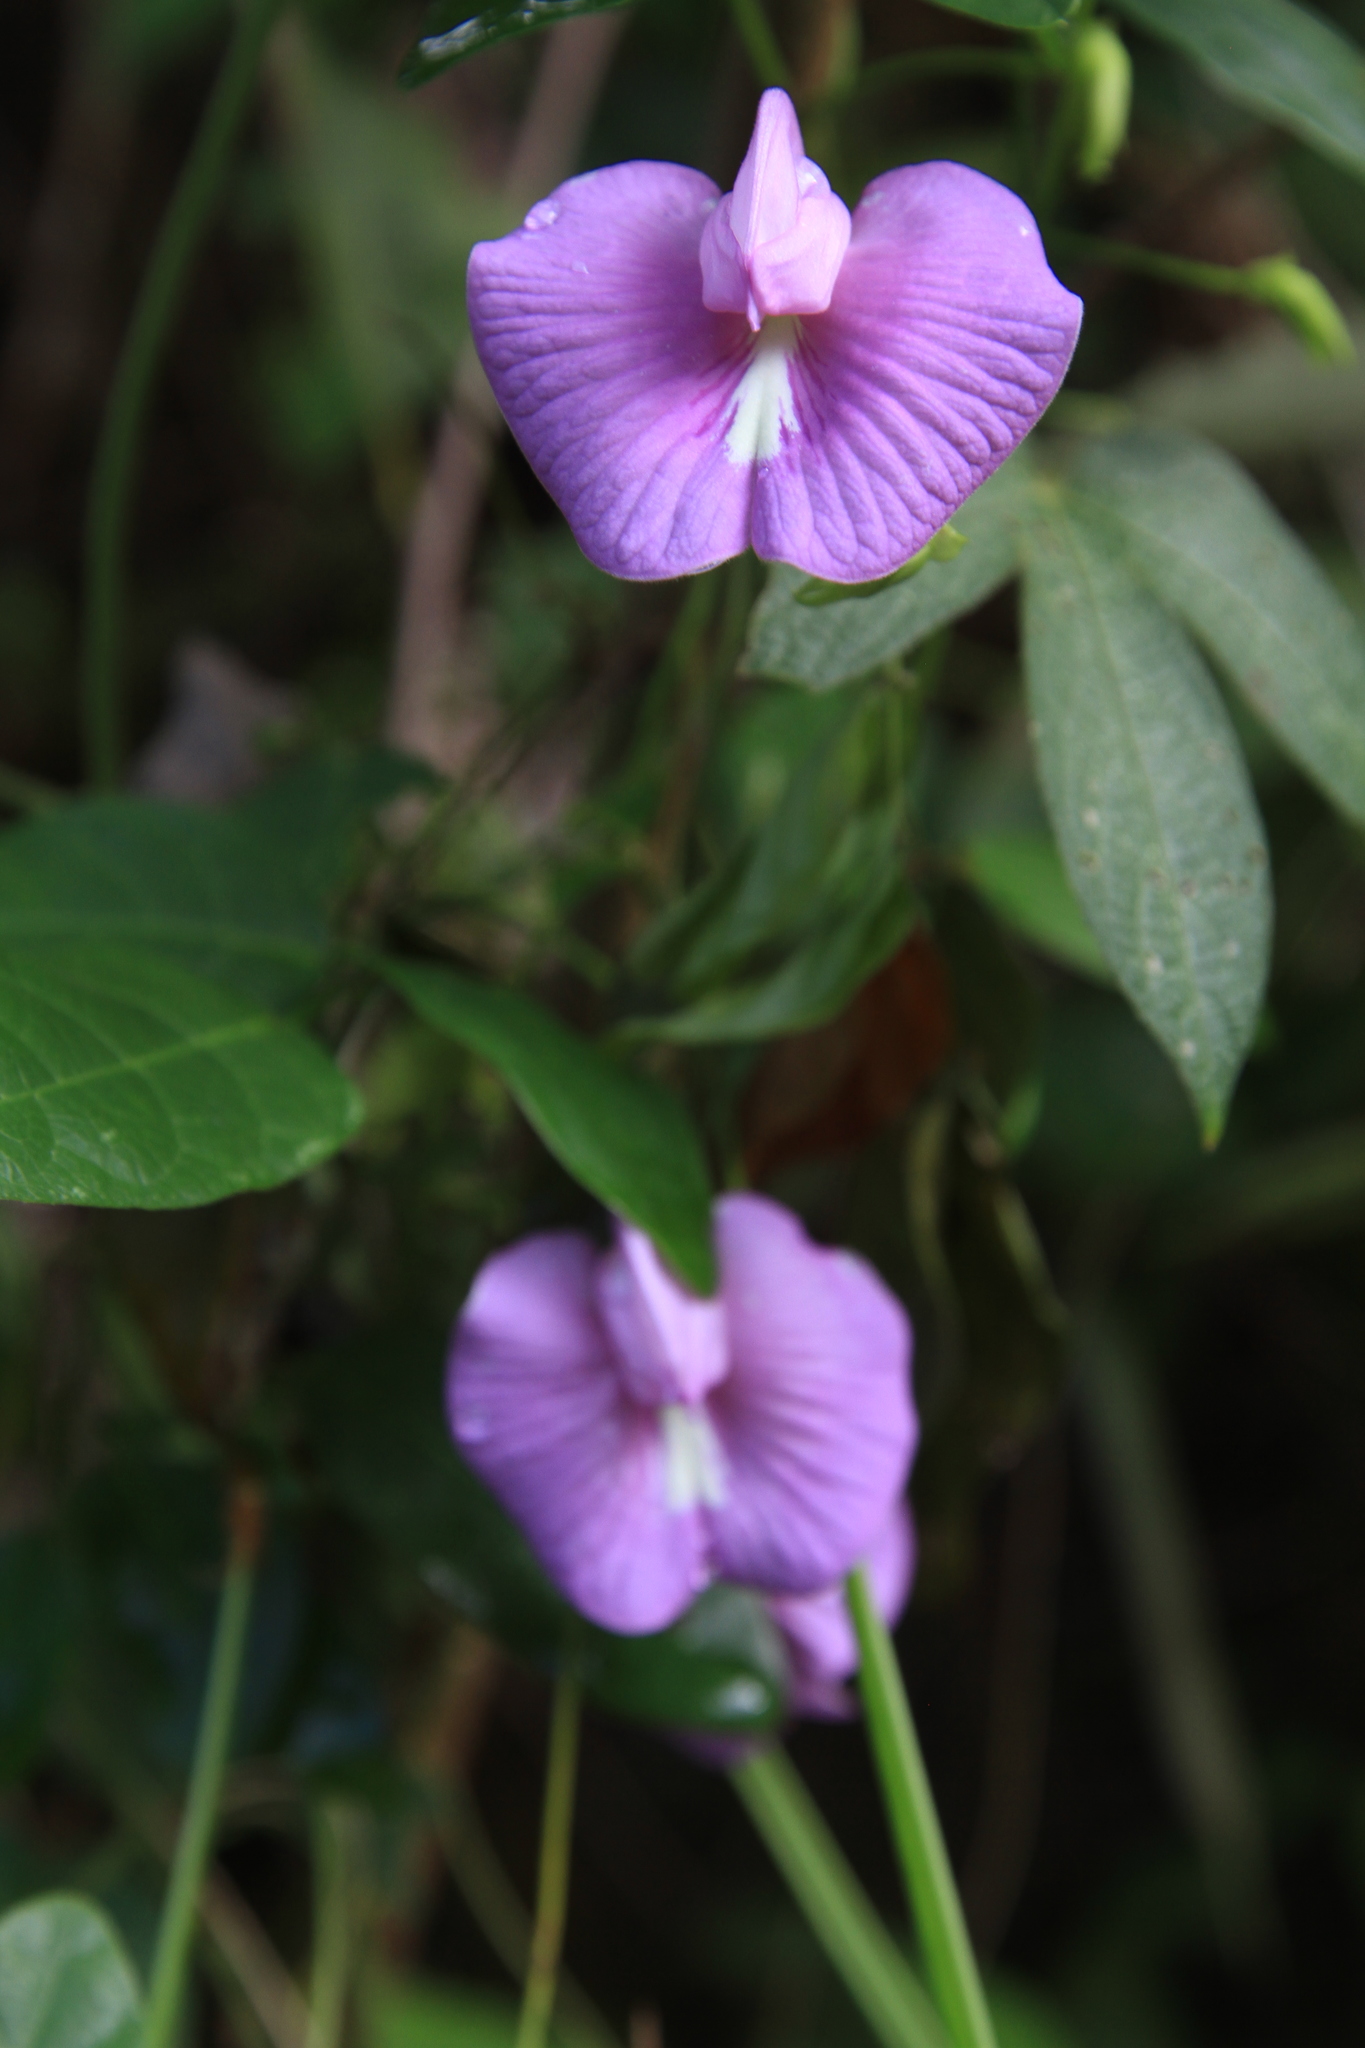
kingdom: Plantae
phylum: Tracheophyta
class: Magnoliopsida
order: Fabales
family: Fabaceae
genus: Centrosema
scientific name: Centrosema virginianum
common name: Butterfly-pea
